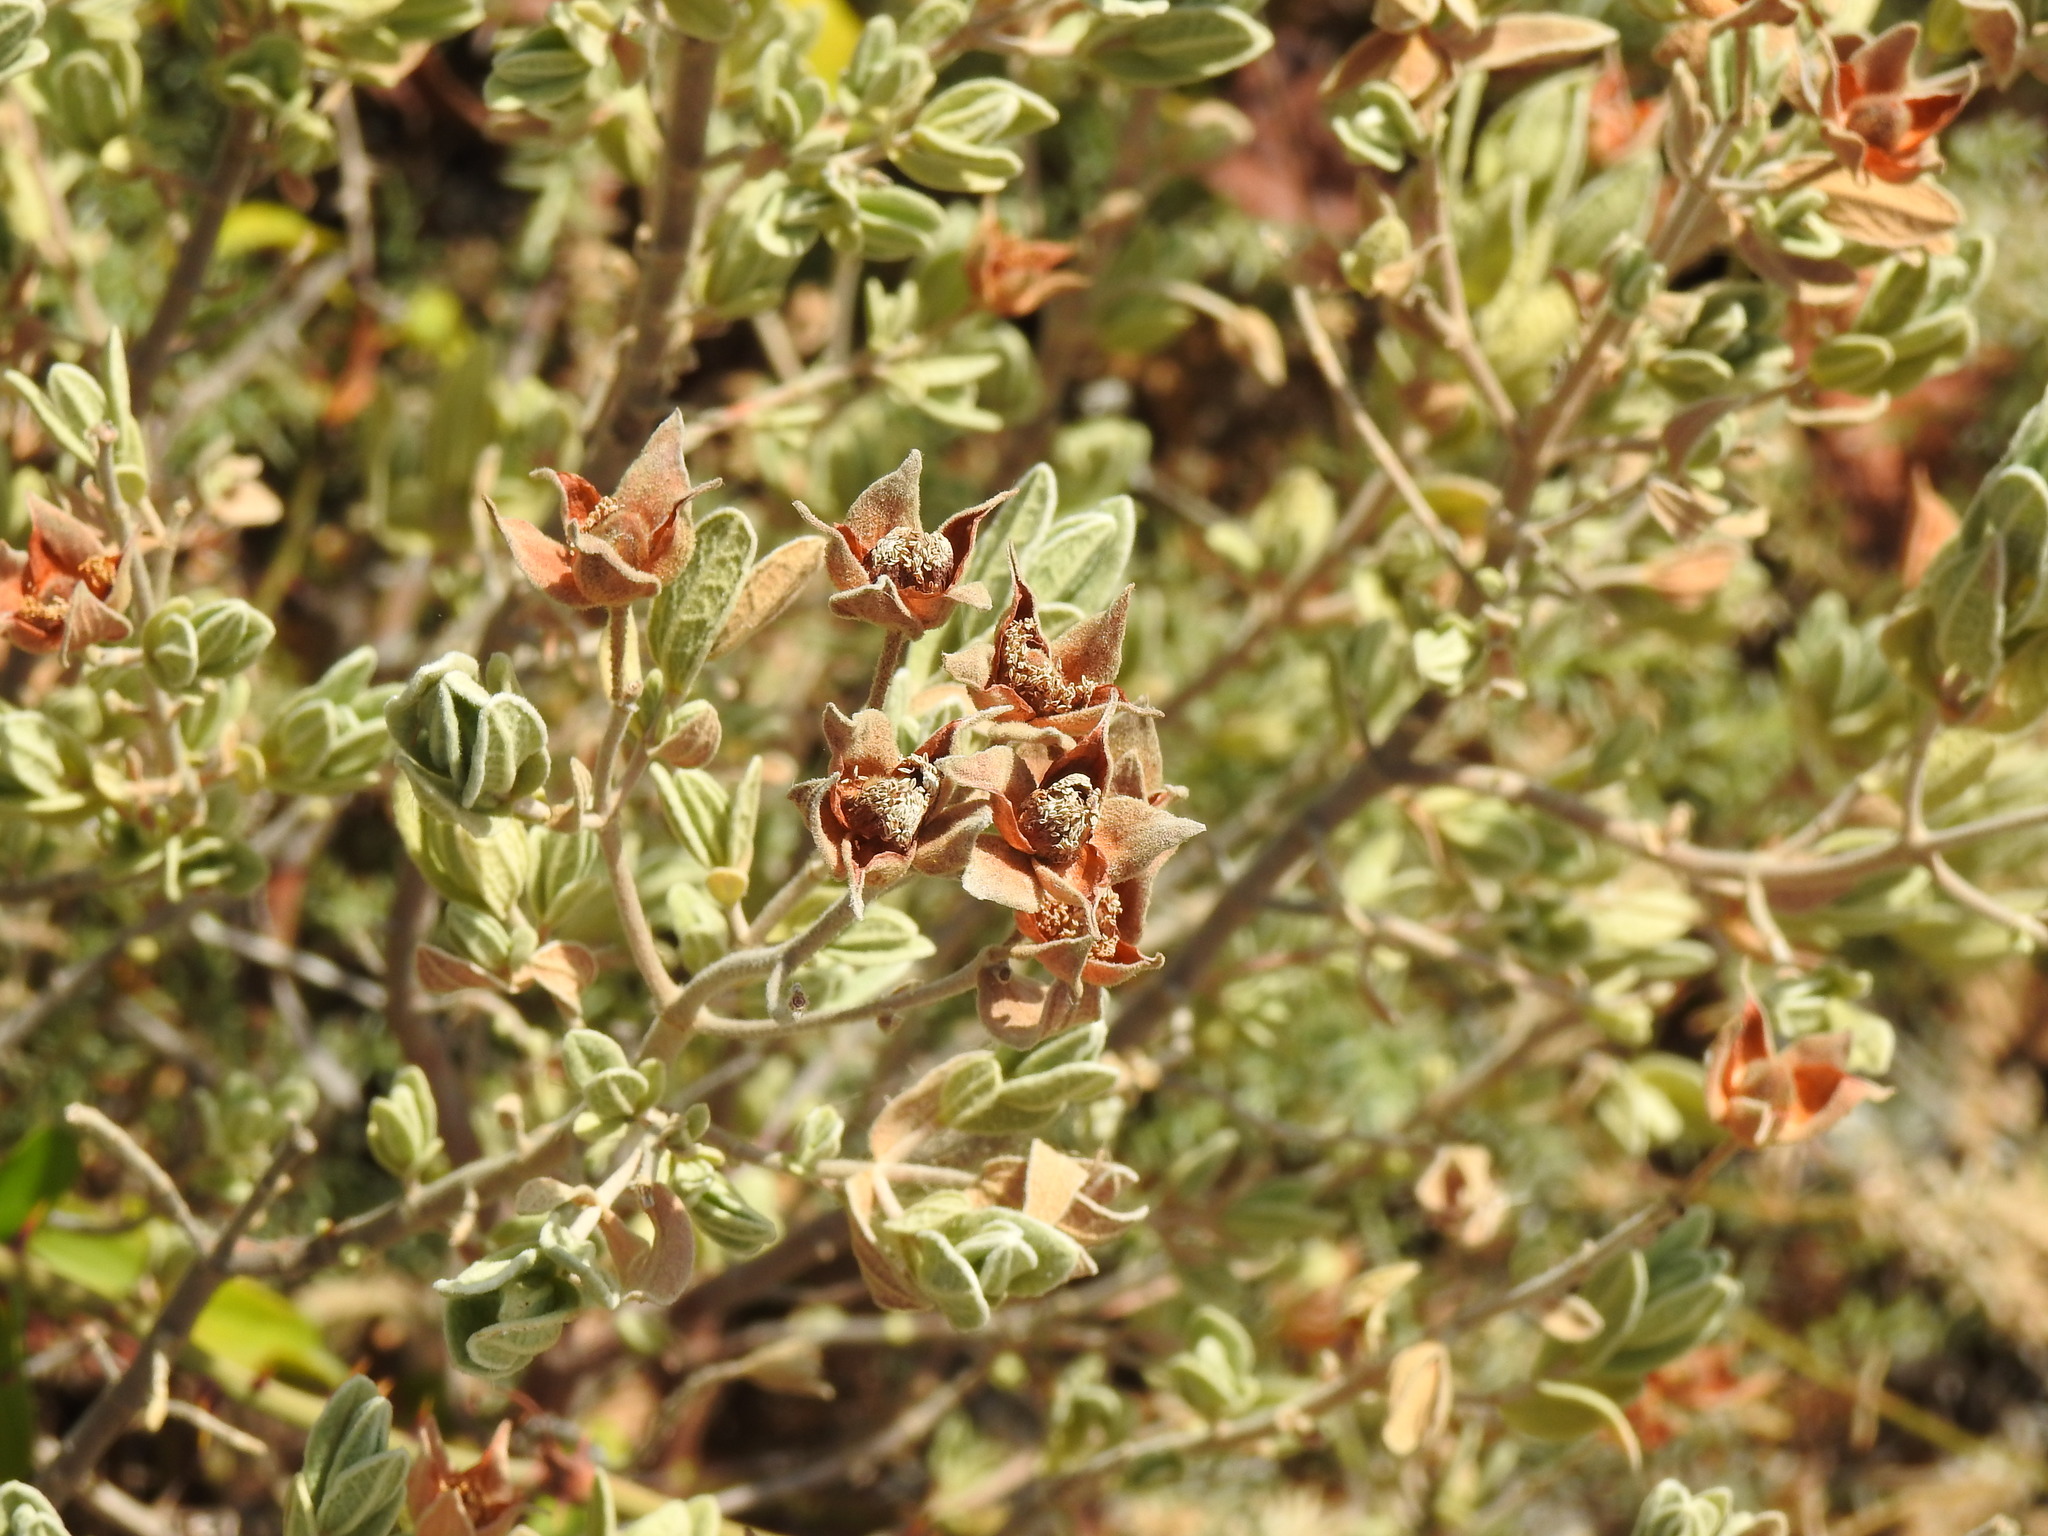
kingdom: Plantae
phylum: Tracheophyta
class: Magnoliopsida
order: Malvales
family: Cistaceae
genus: Cistus
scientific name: Cistus albidus
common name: White-leaf rock-rose
